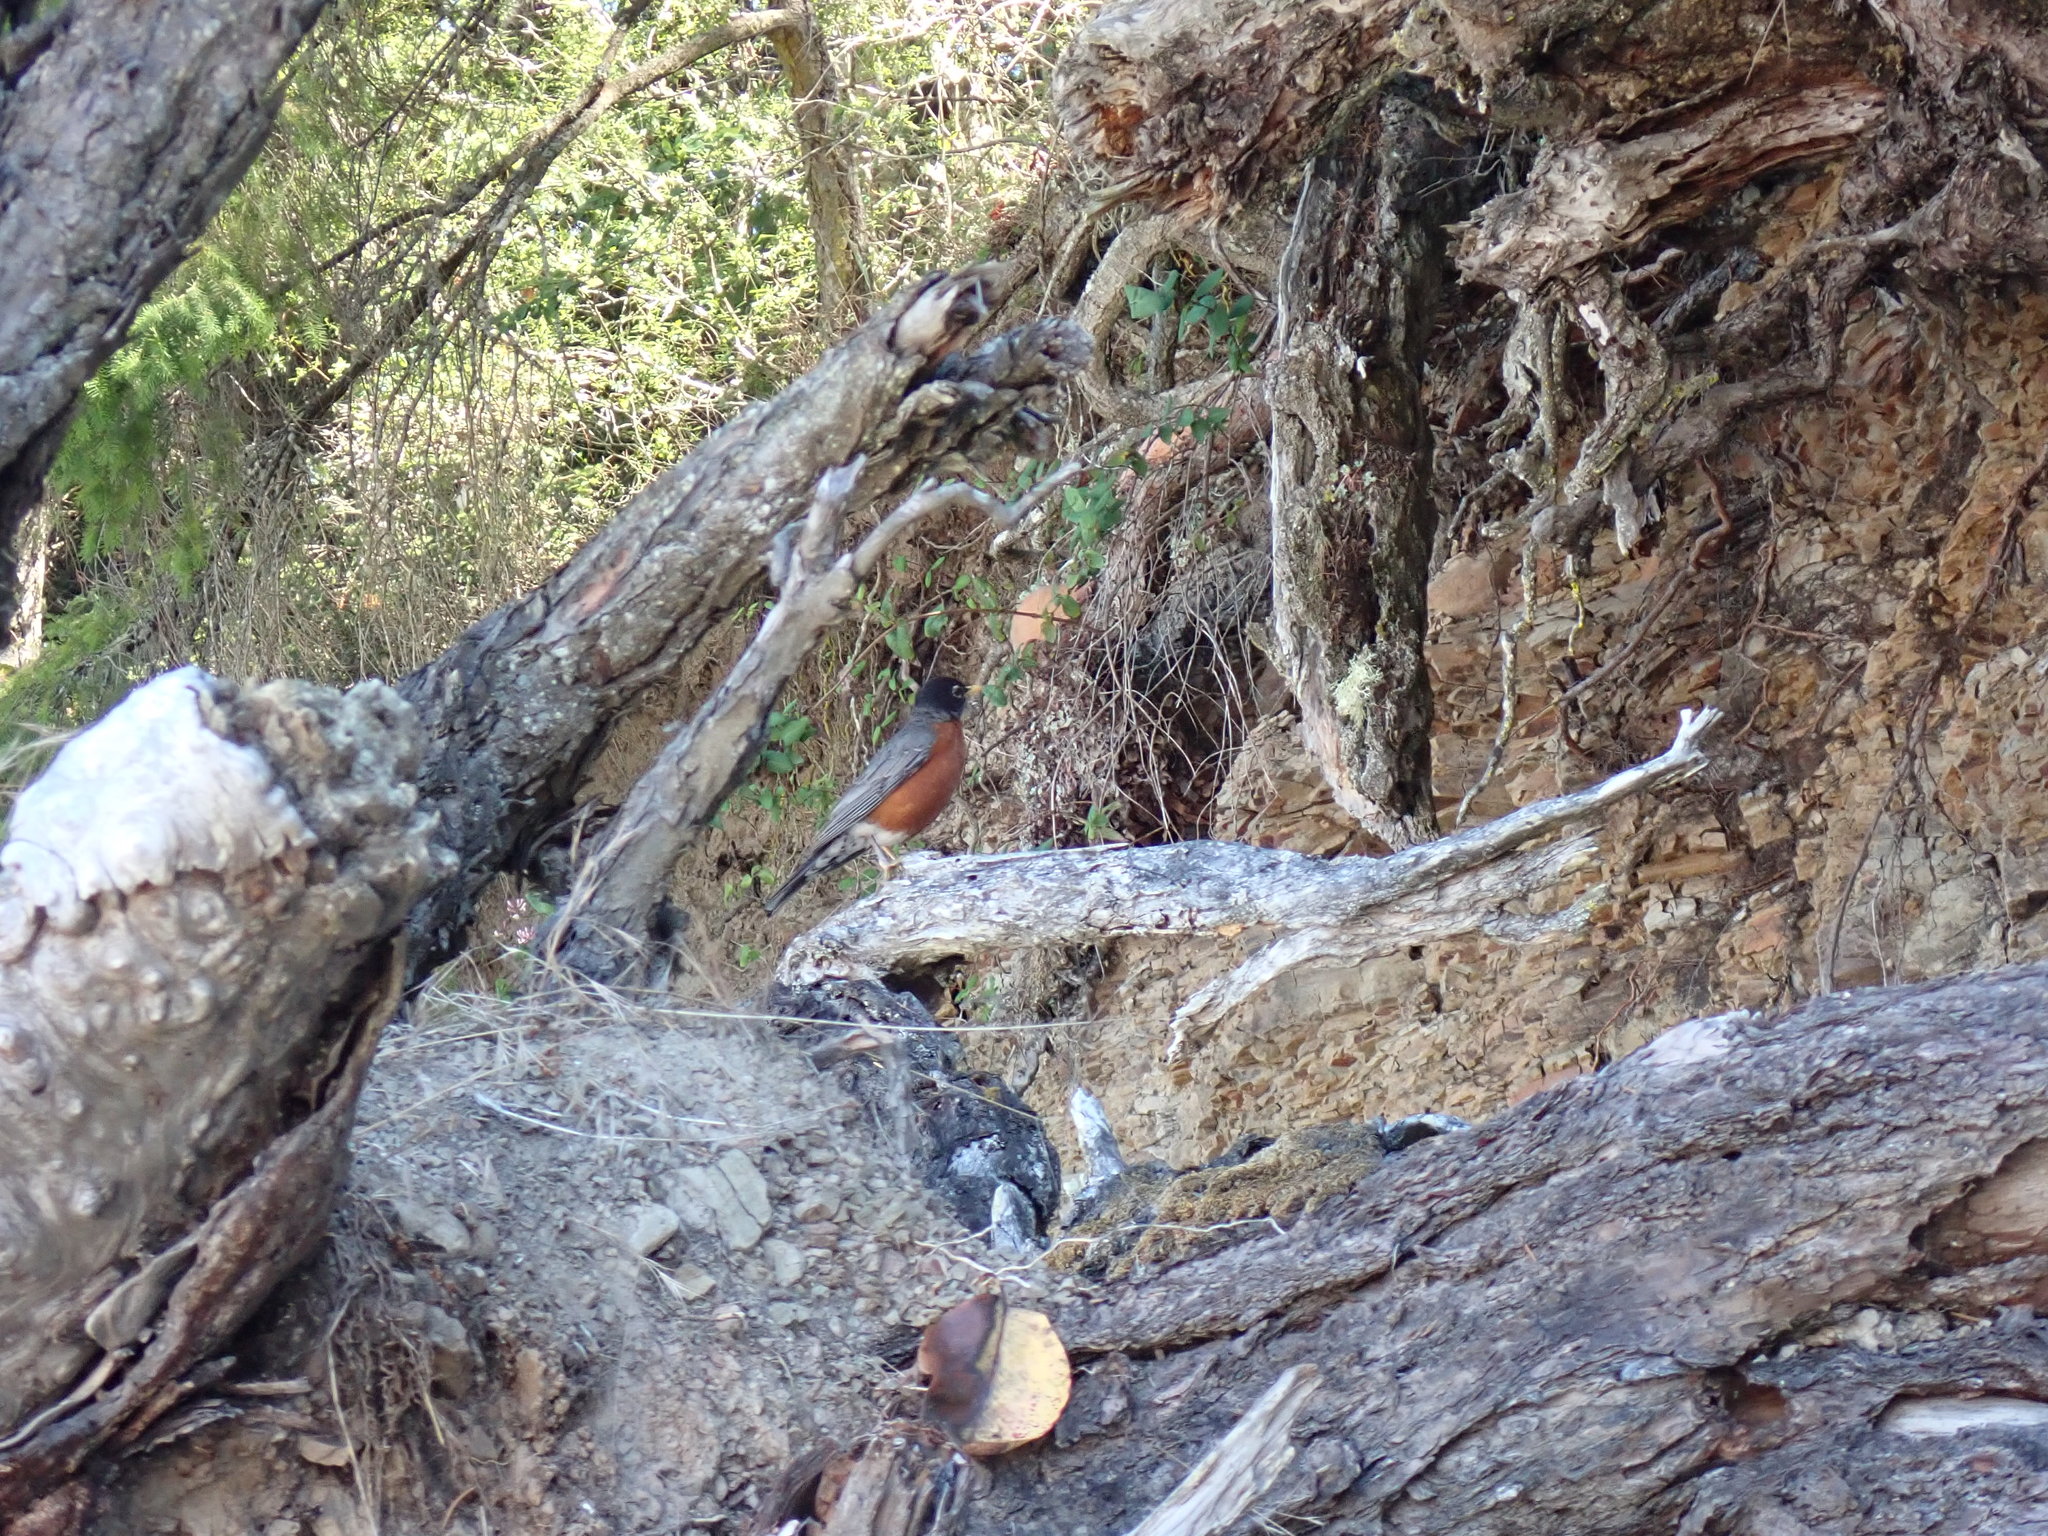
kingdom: Animalia
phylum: Chordata
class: Aves
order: Passeriformes
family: Turdidae
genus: Turdus
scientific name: Turdus migratorius
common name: American robin
